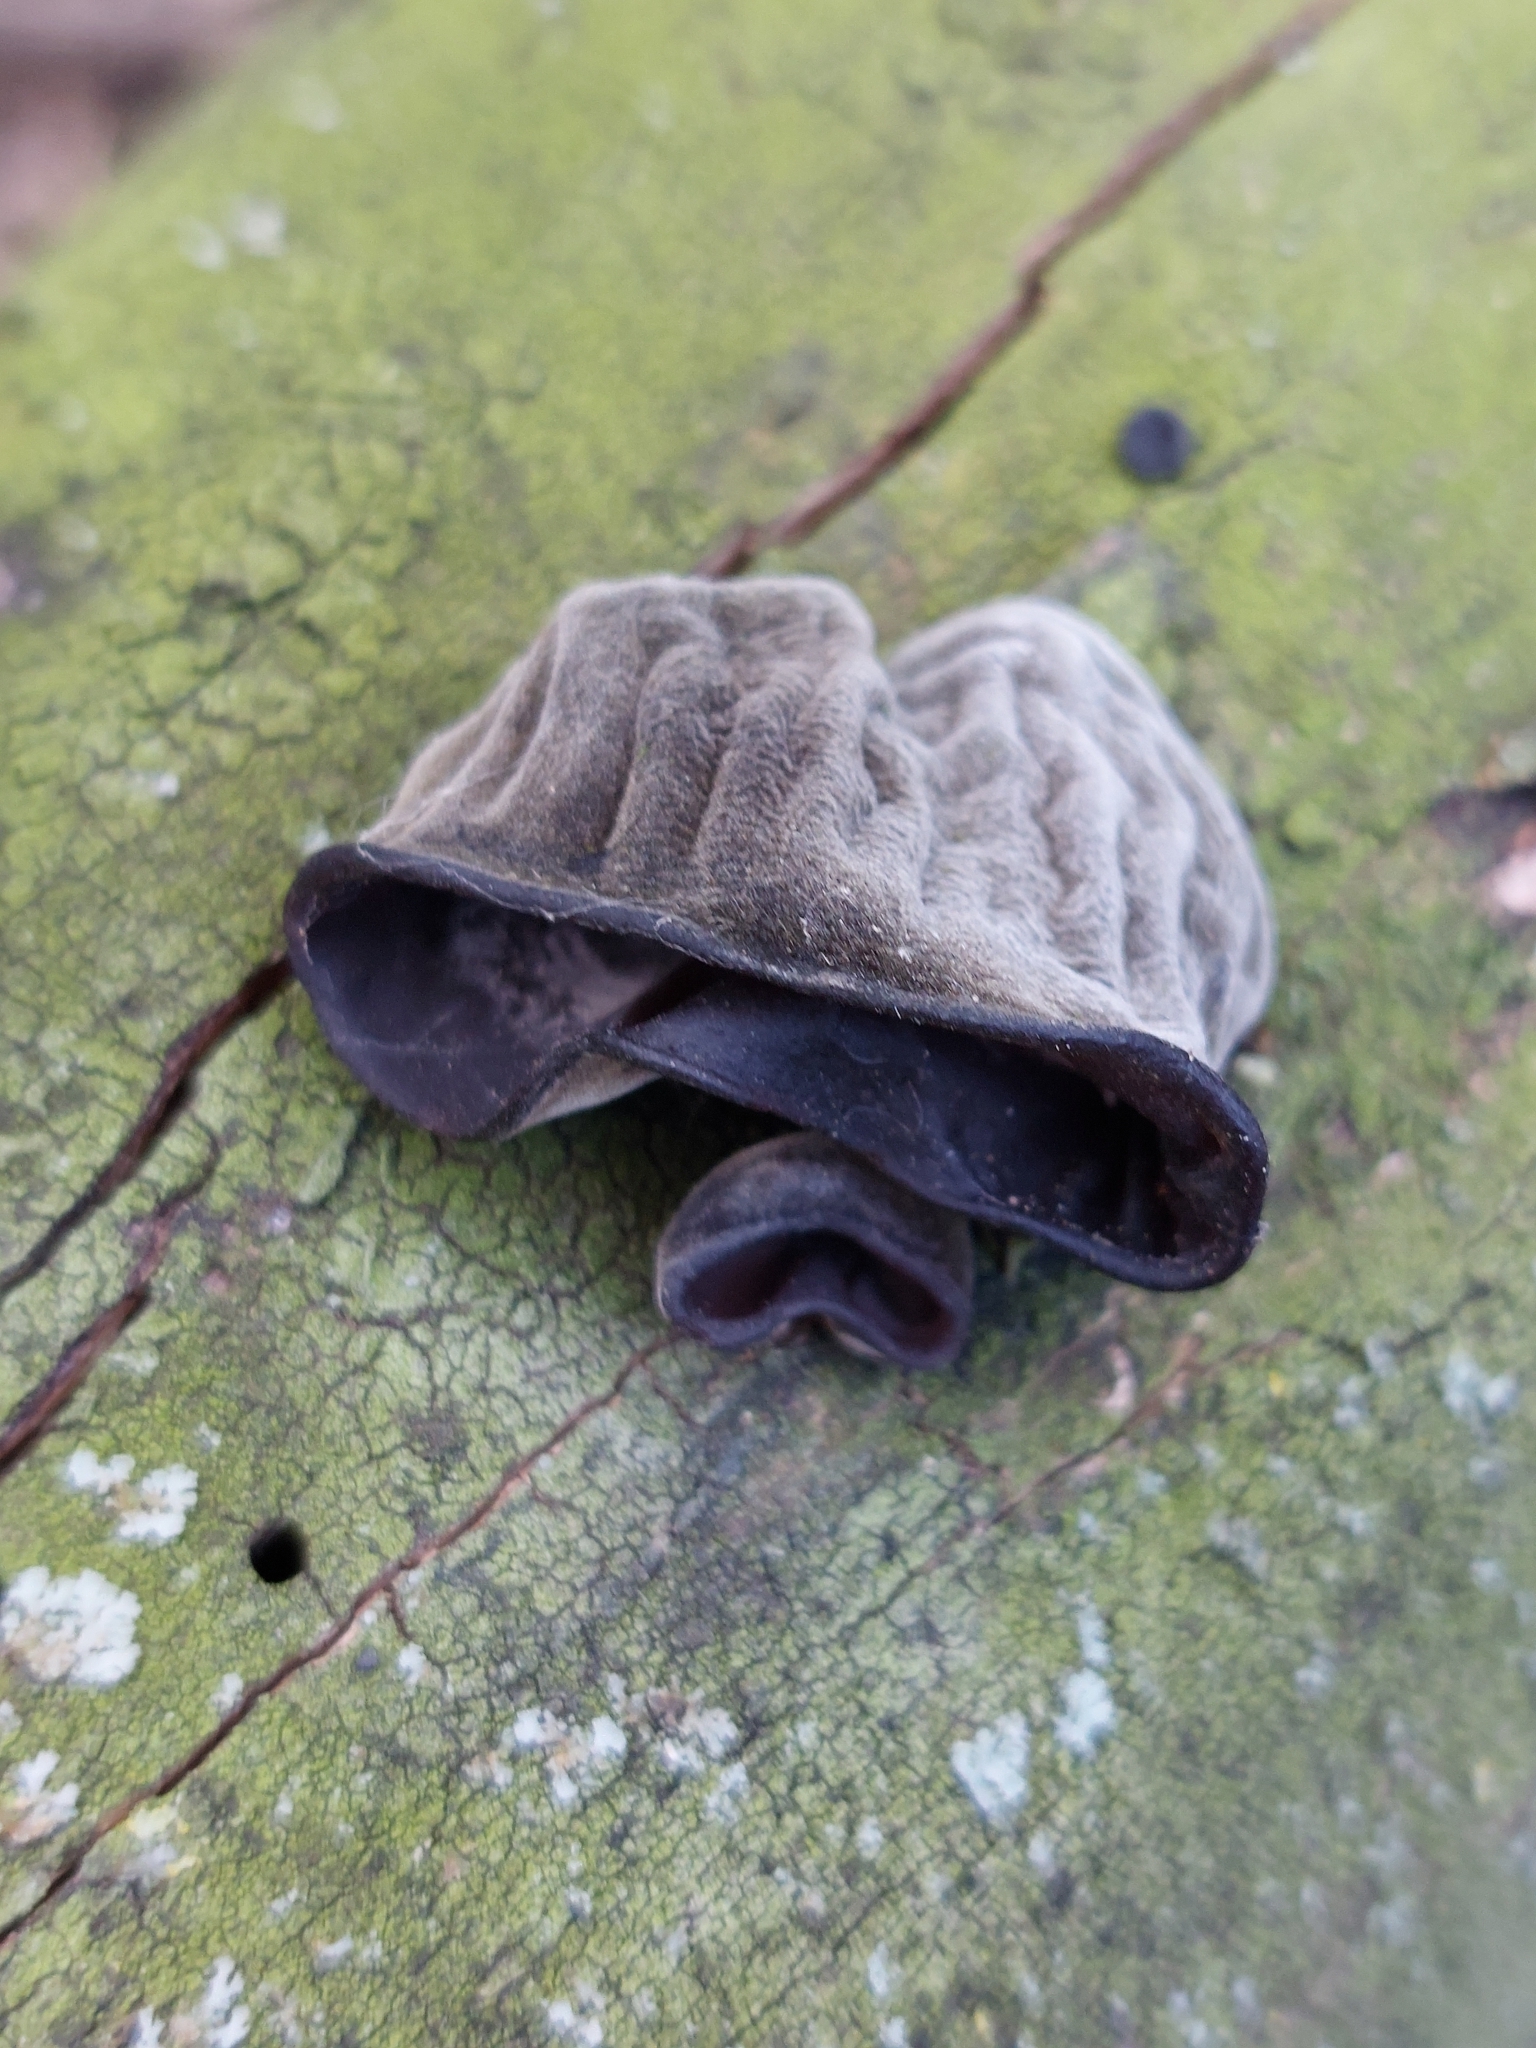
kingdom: Fungi
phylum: Basidiomycota
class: Agaricomycetes
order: Auriculariales
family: Auriculariaceae
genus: Auricularia
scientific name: Auricularia auricula-judae
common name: Jelly ear
